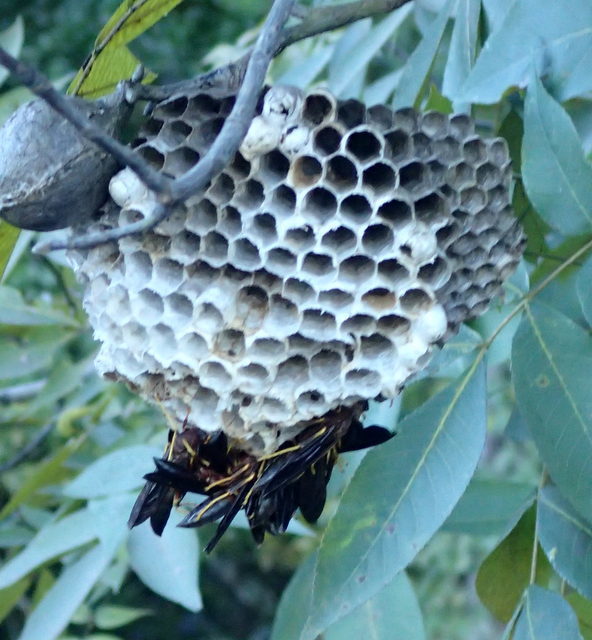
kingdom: Animalia
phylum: Arthropoda
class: Insecta
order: Hymenoptera
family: Eumenidae
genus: Polistes
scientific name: Polistes annularis
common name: Ringed paper wasp
